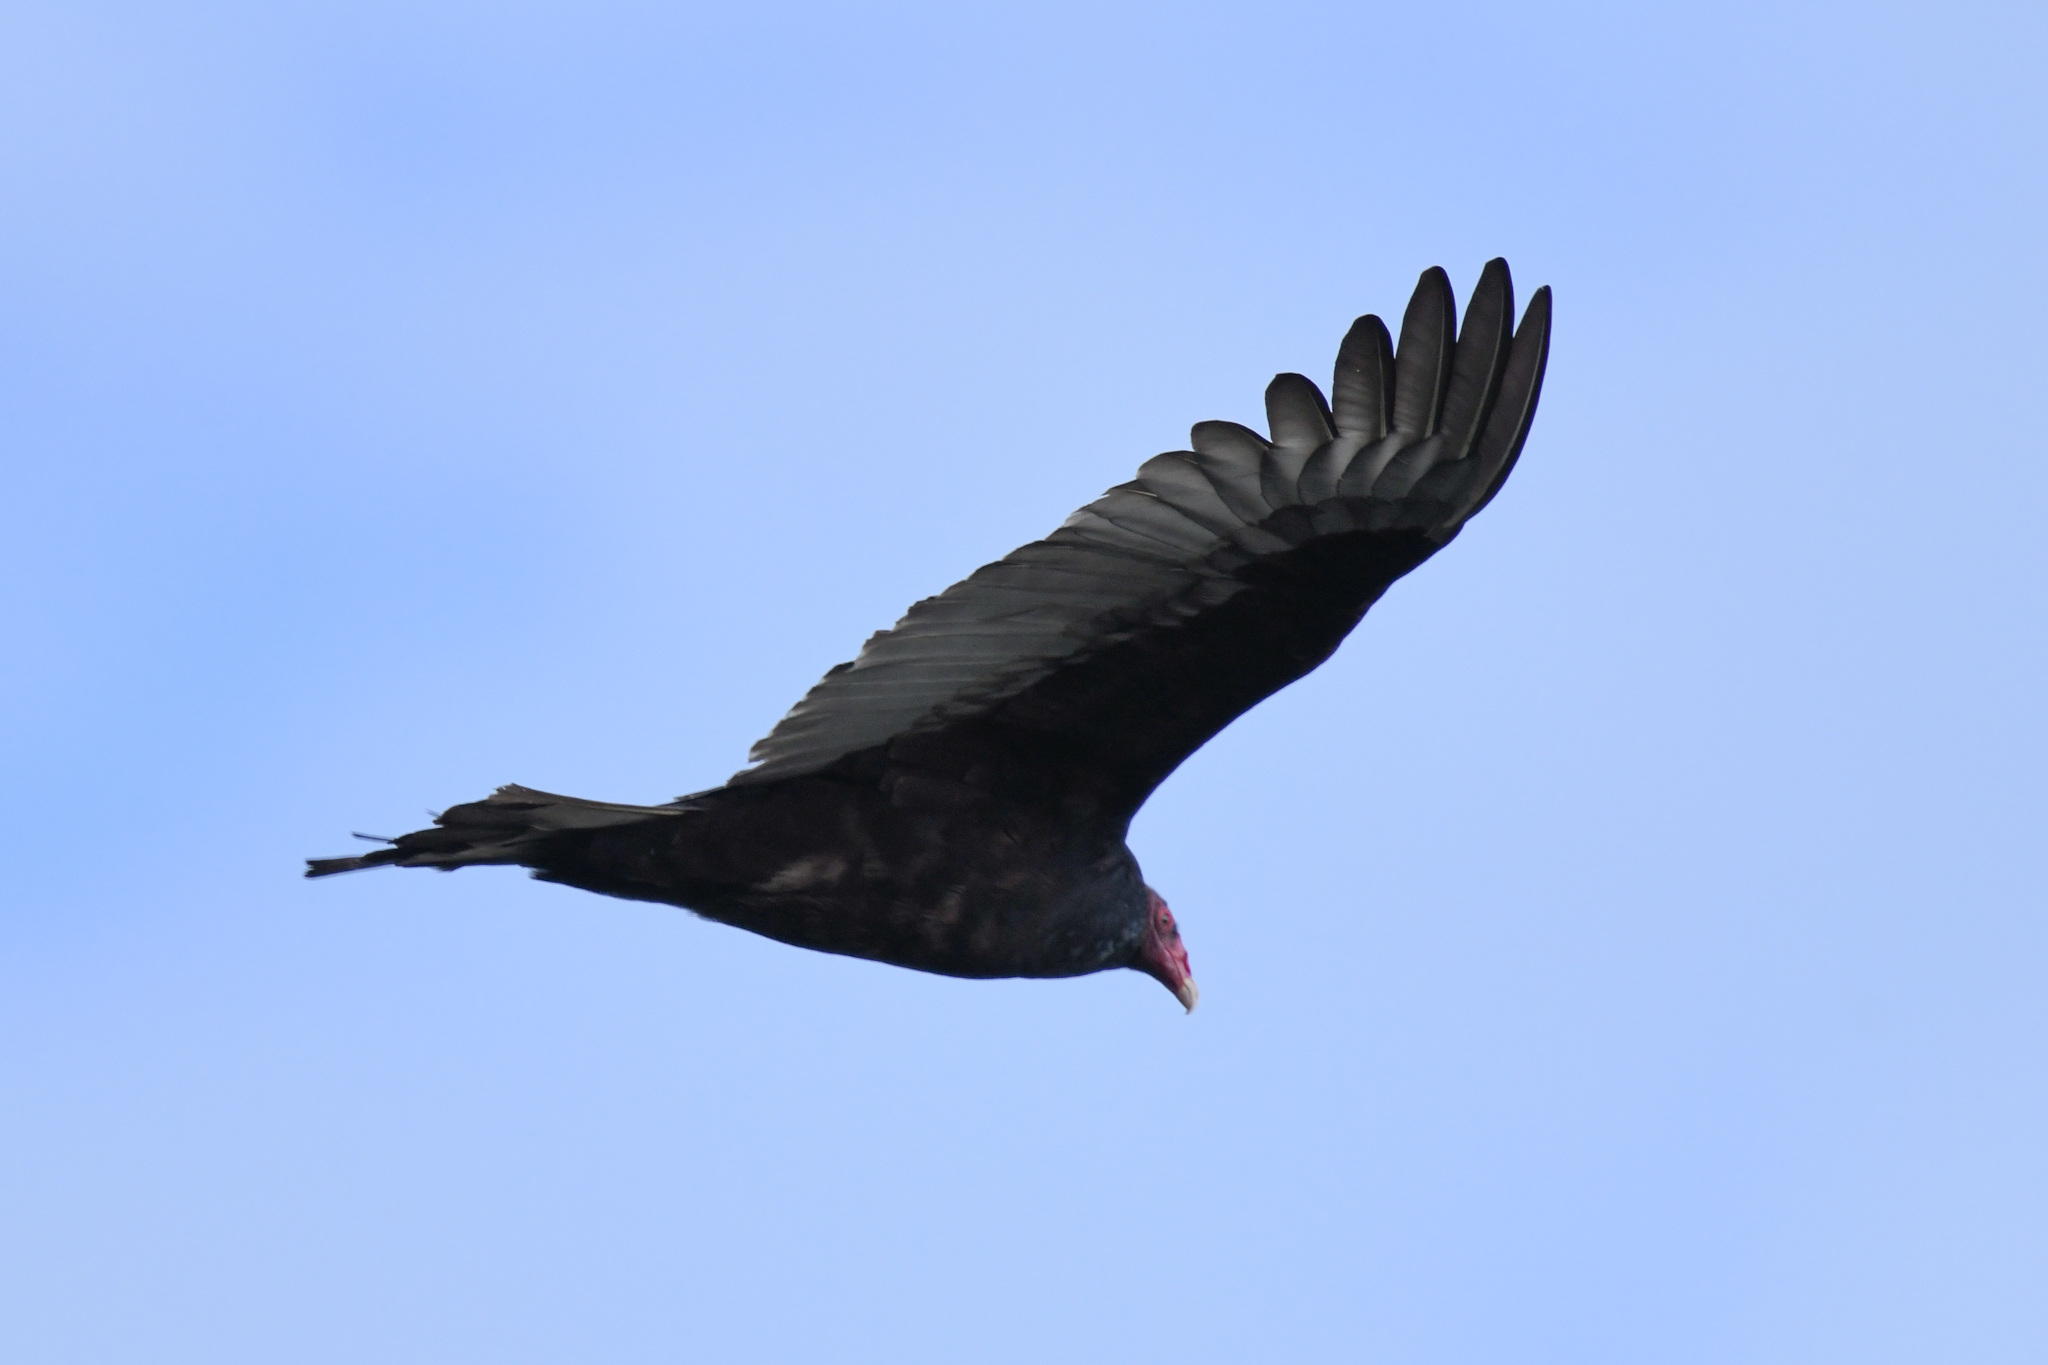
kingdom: Animalia
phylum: Chordata
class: Aves
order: Accipitriformes
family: Cathartidae
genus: Cathartes
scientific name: Cathartes aura
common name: Turkey vulture
